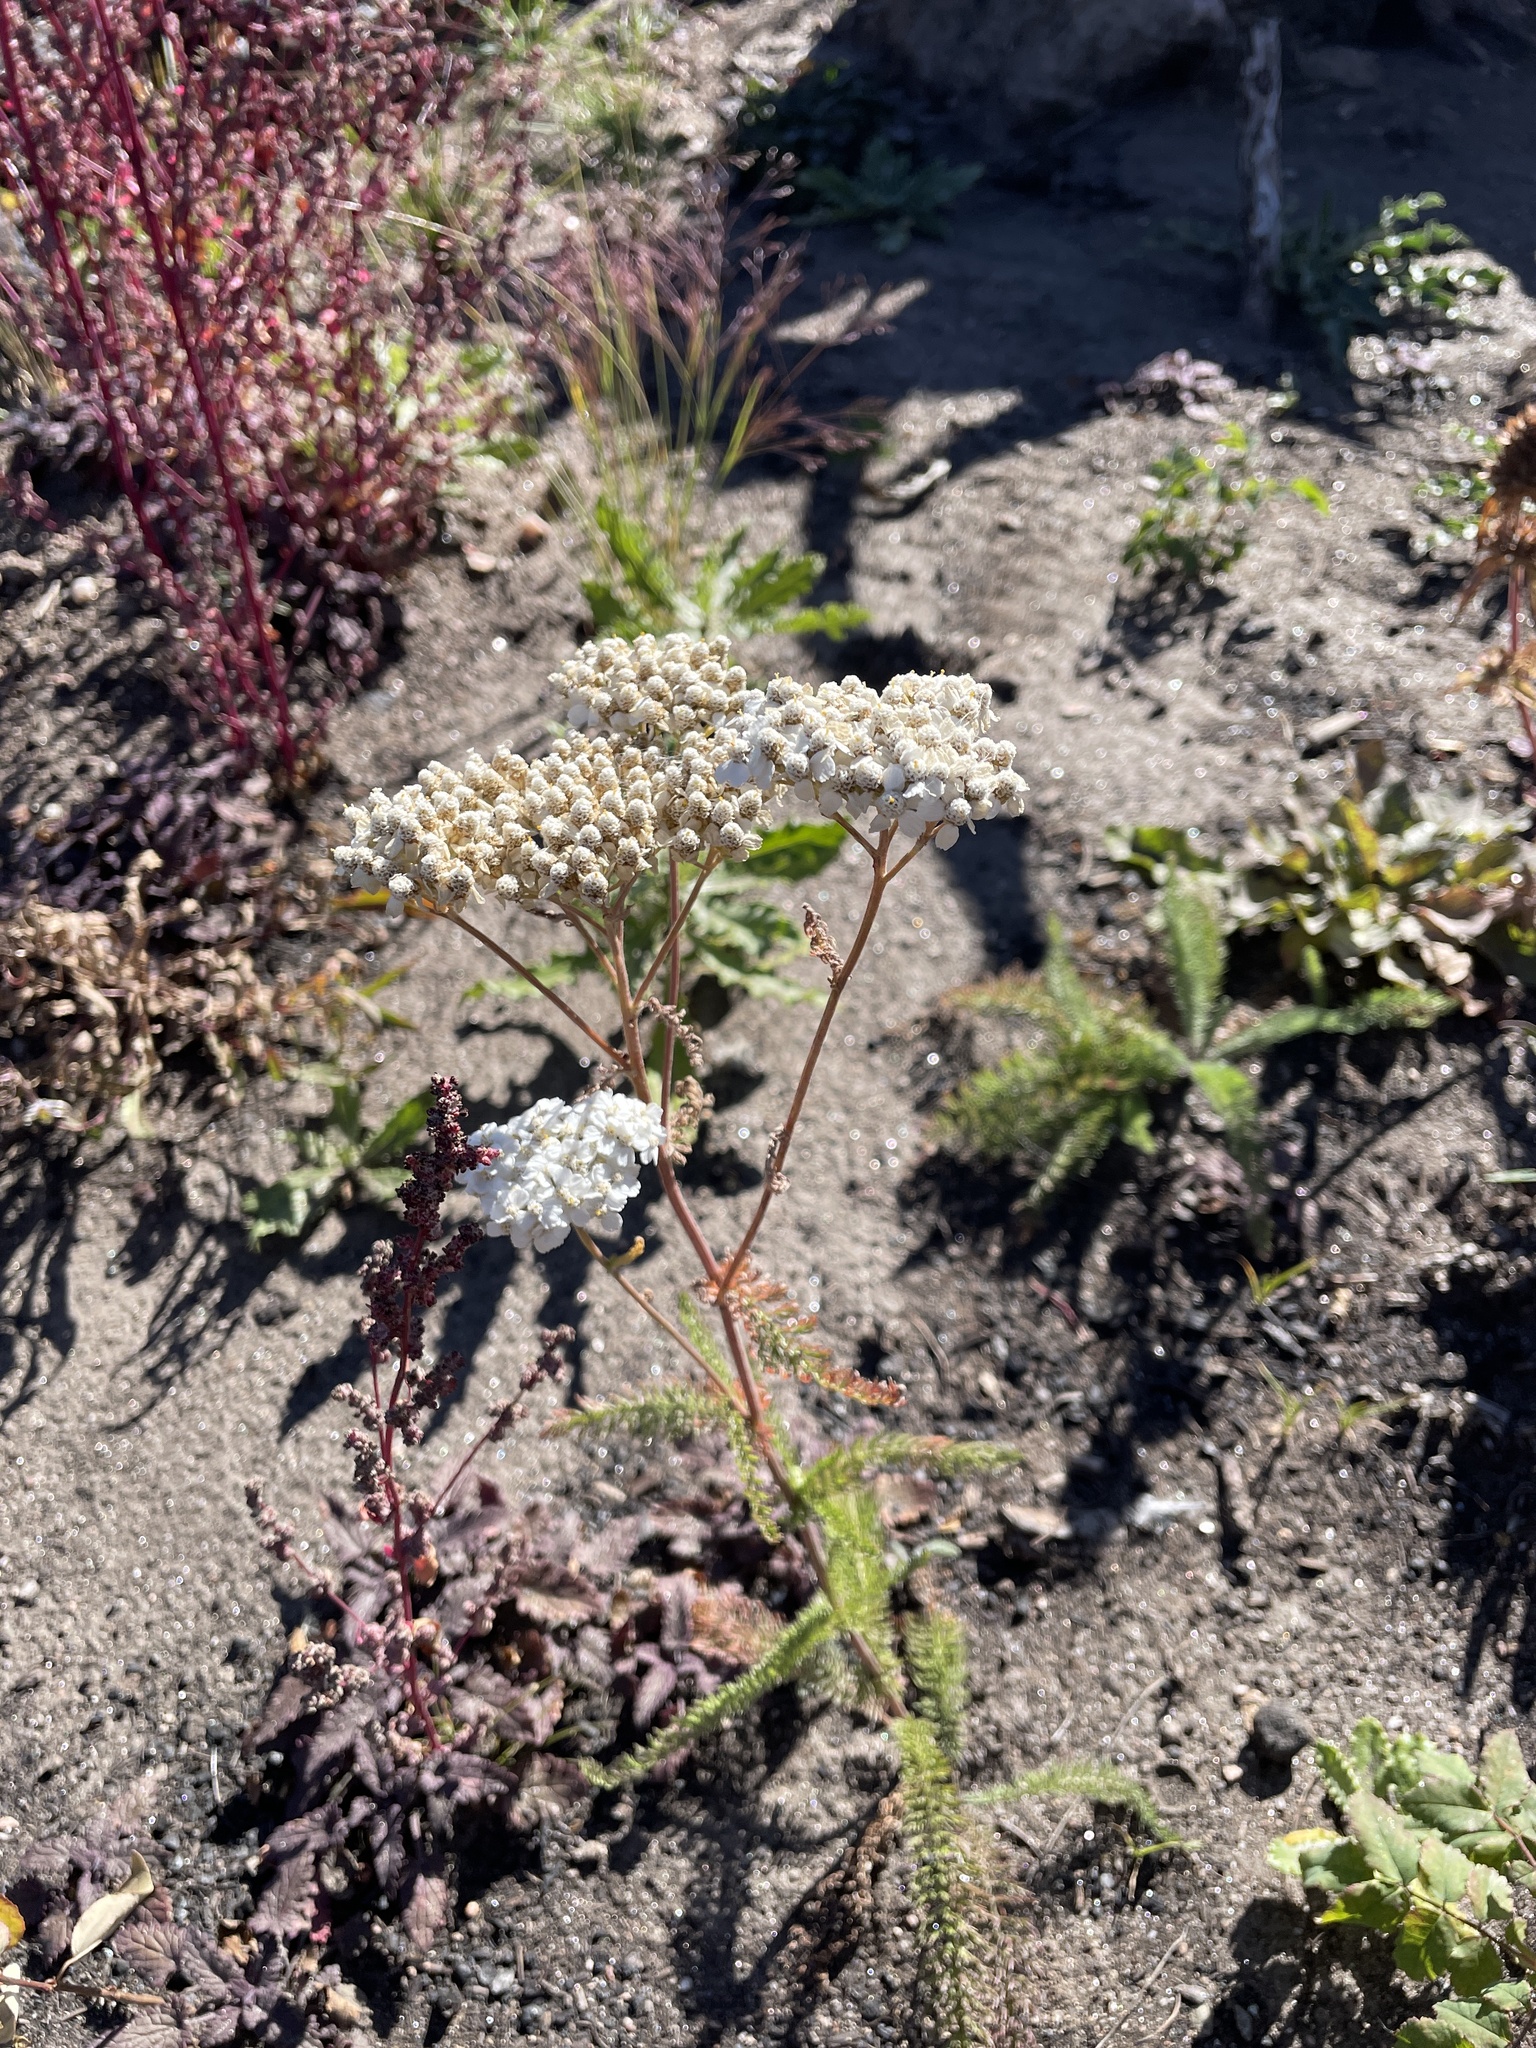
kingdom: Plantae
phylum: Tracheophyta
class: Magnoliopsida
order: Asterales
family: Asteraceae
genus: Achillea
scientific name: Achillea millefolium
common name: Yarrow
